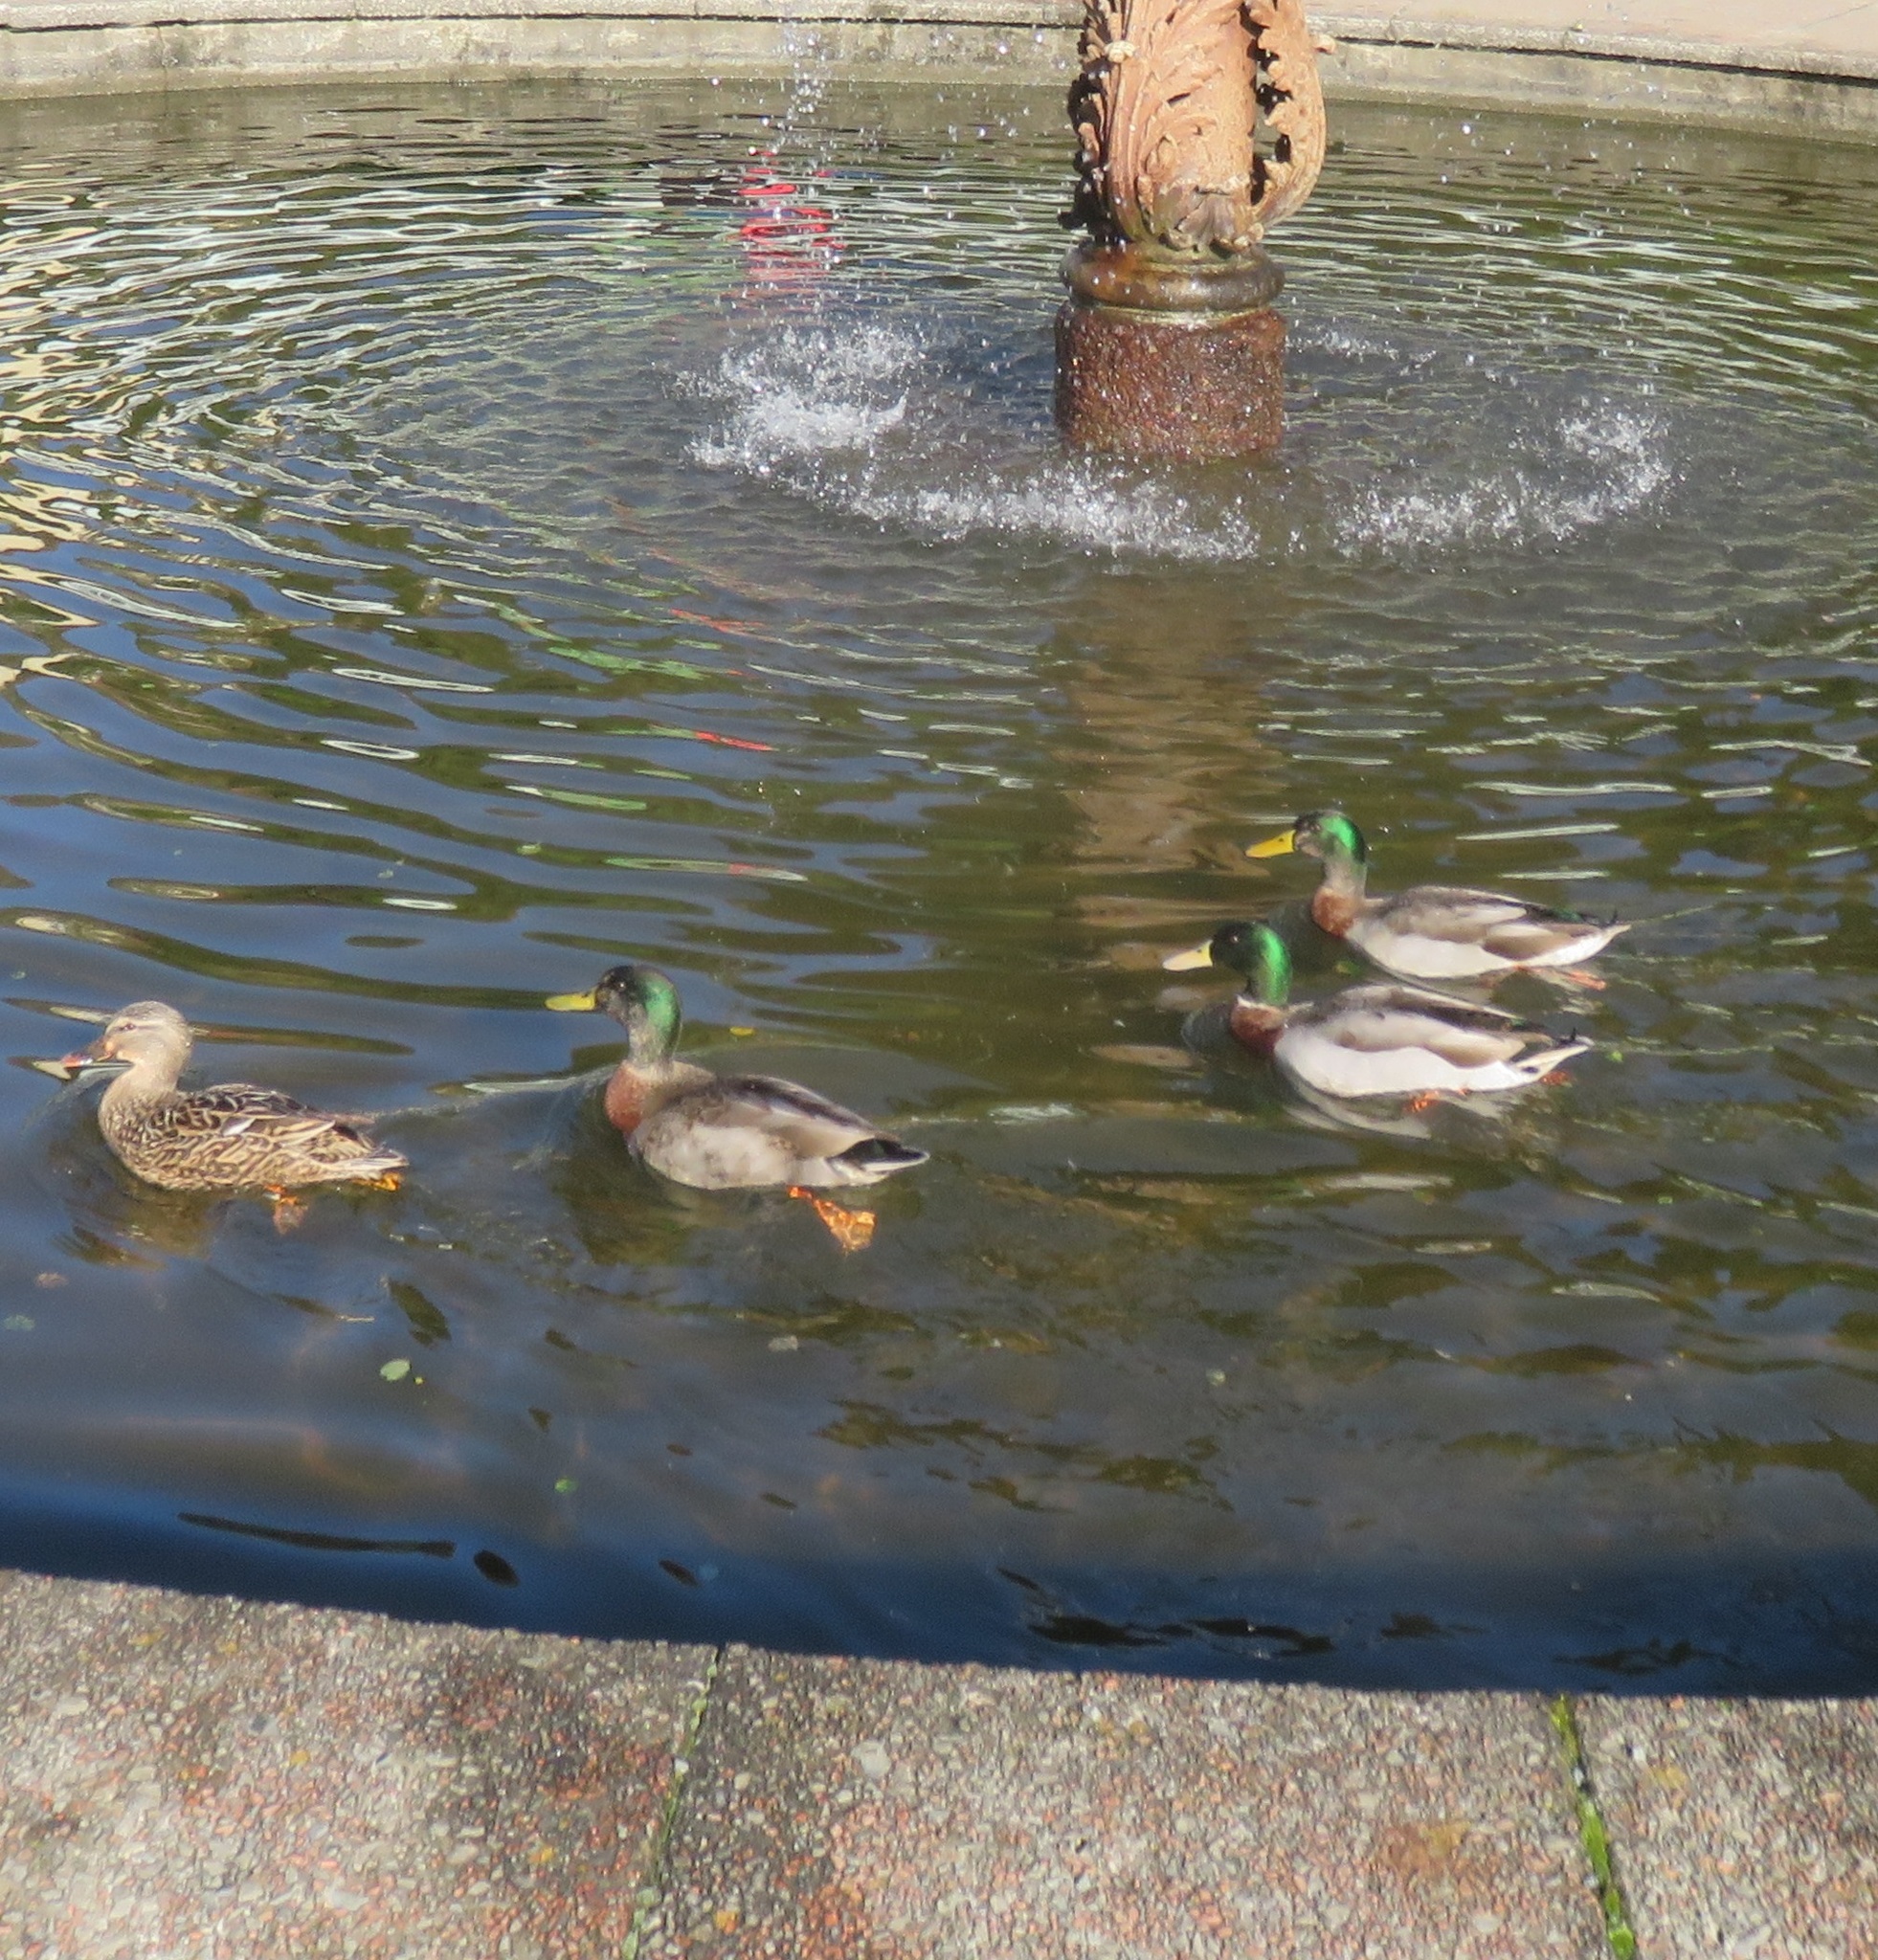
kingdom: Animalia
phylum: Chordata
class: Aves
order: Anseriformes
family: Anatidae
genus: Anas
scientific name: Anas platyrhynchos
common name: Mallard
